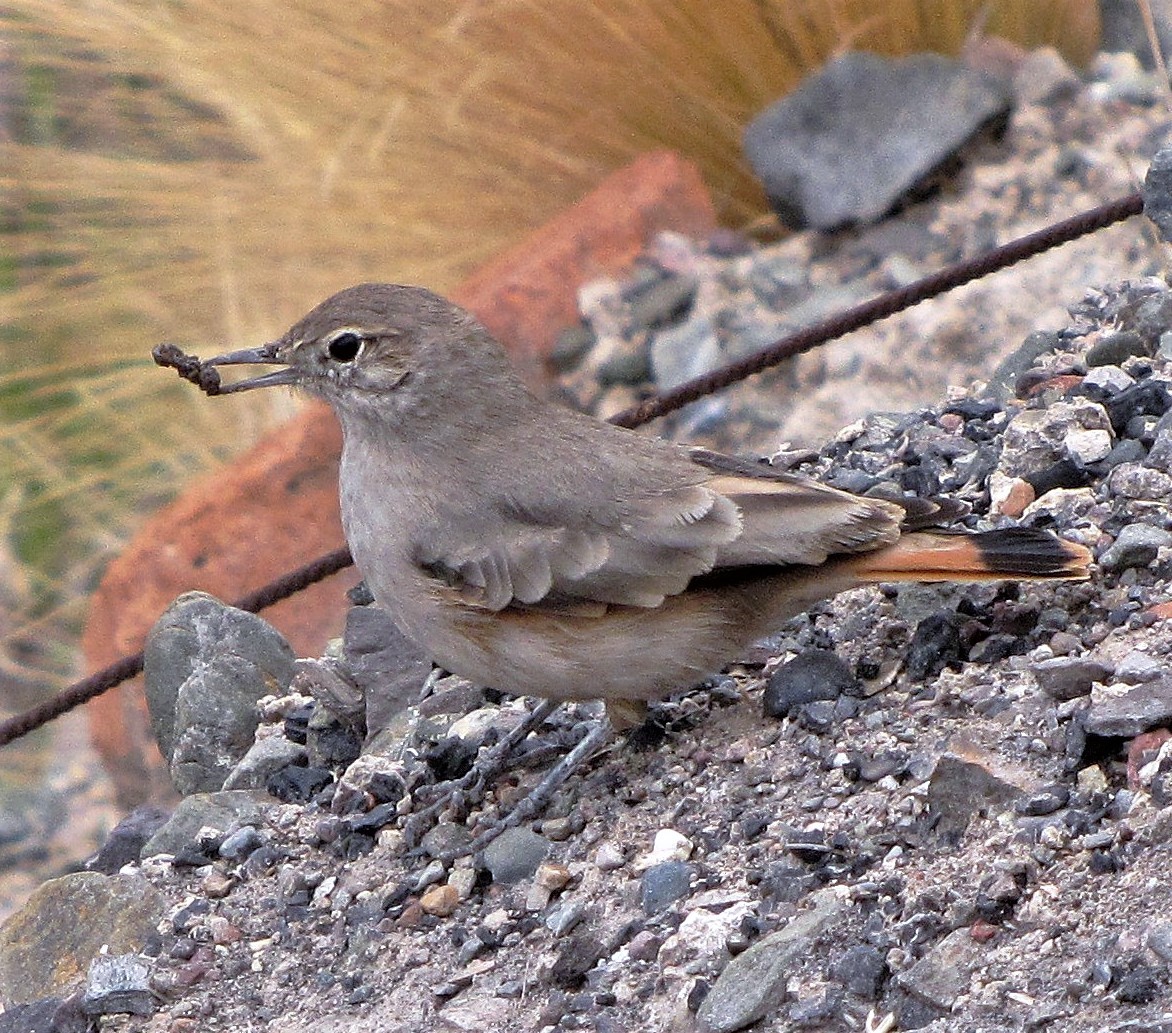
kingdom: Animalia
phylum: Chordata
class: Aves
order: Passeriformes
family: Furnariidae
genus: Geositta
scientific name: Geositta rufipennis
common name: Rufous-banded miner
